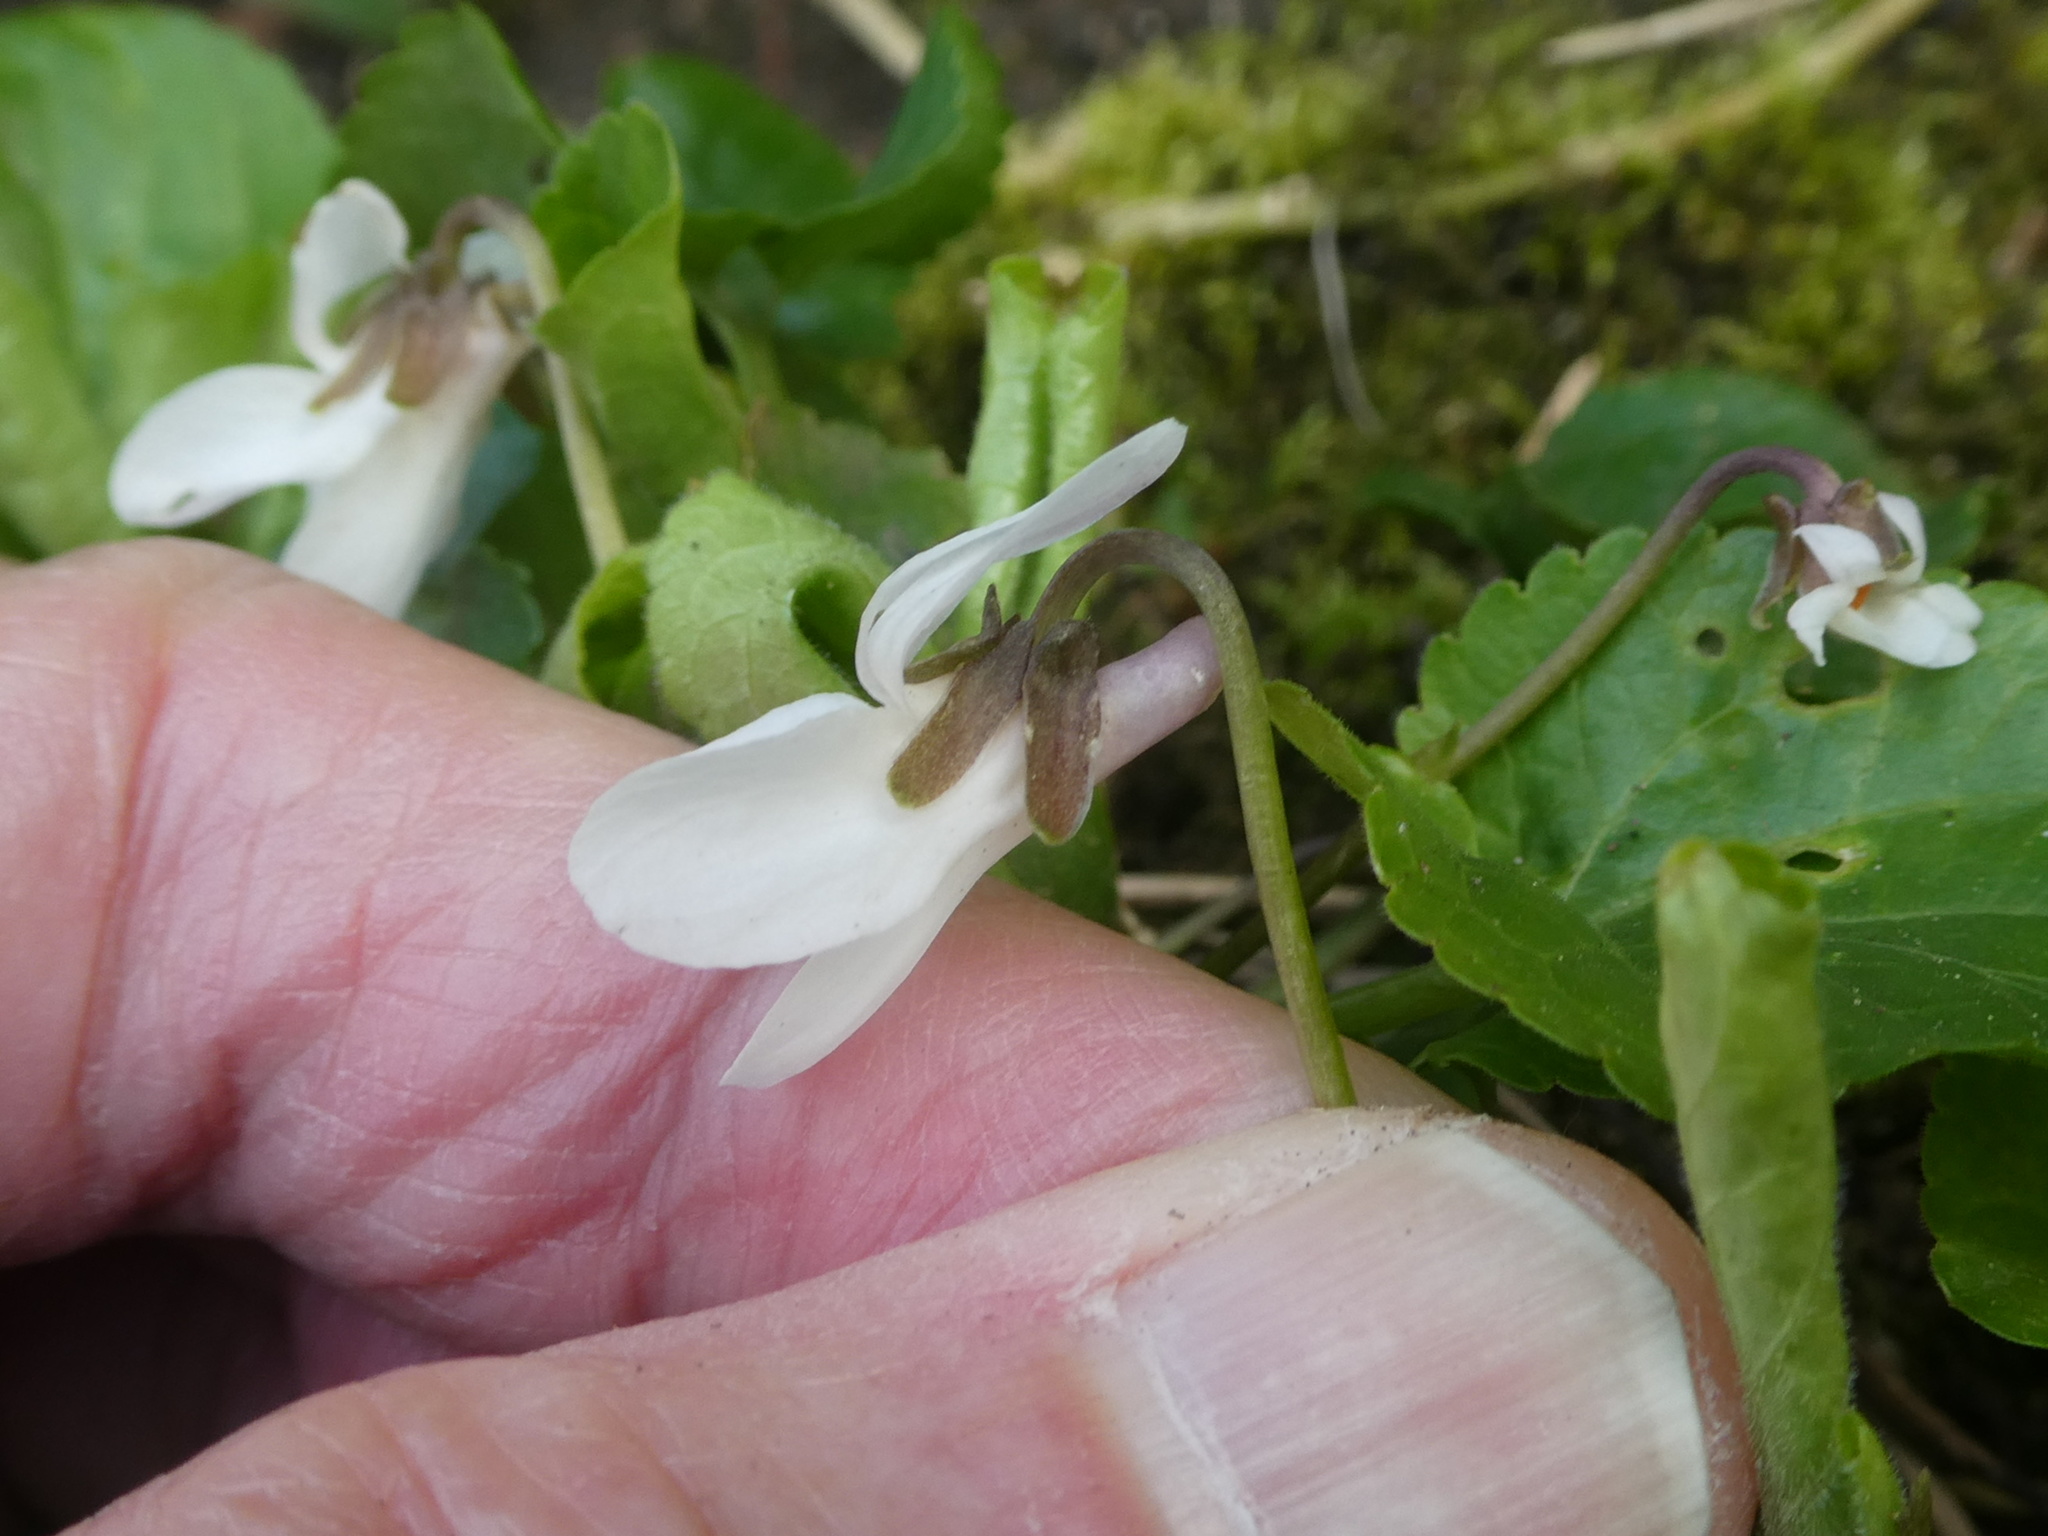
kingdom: Plantae
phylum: Tracheophyta
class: Magnoliopsida
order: Malpighiales
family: Violaceae
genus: Viola
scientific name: Viola odorata
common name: Sweet violet
